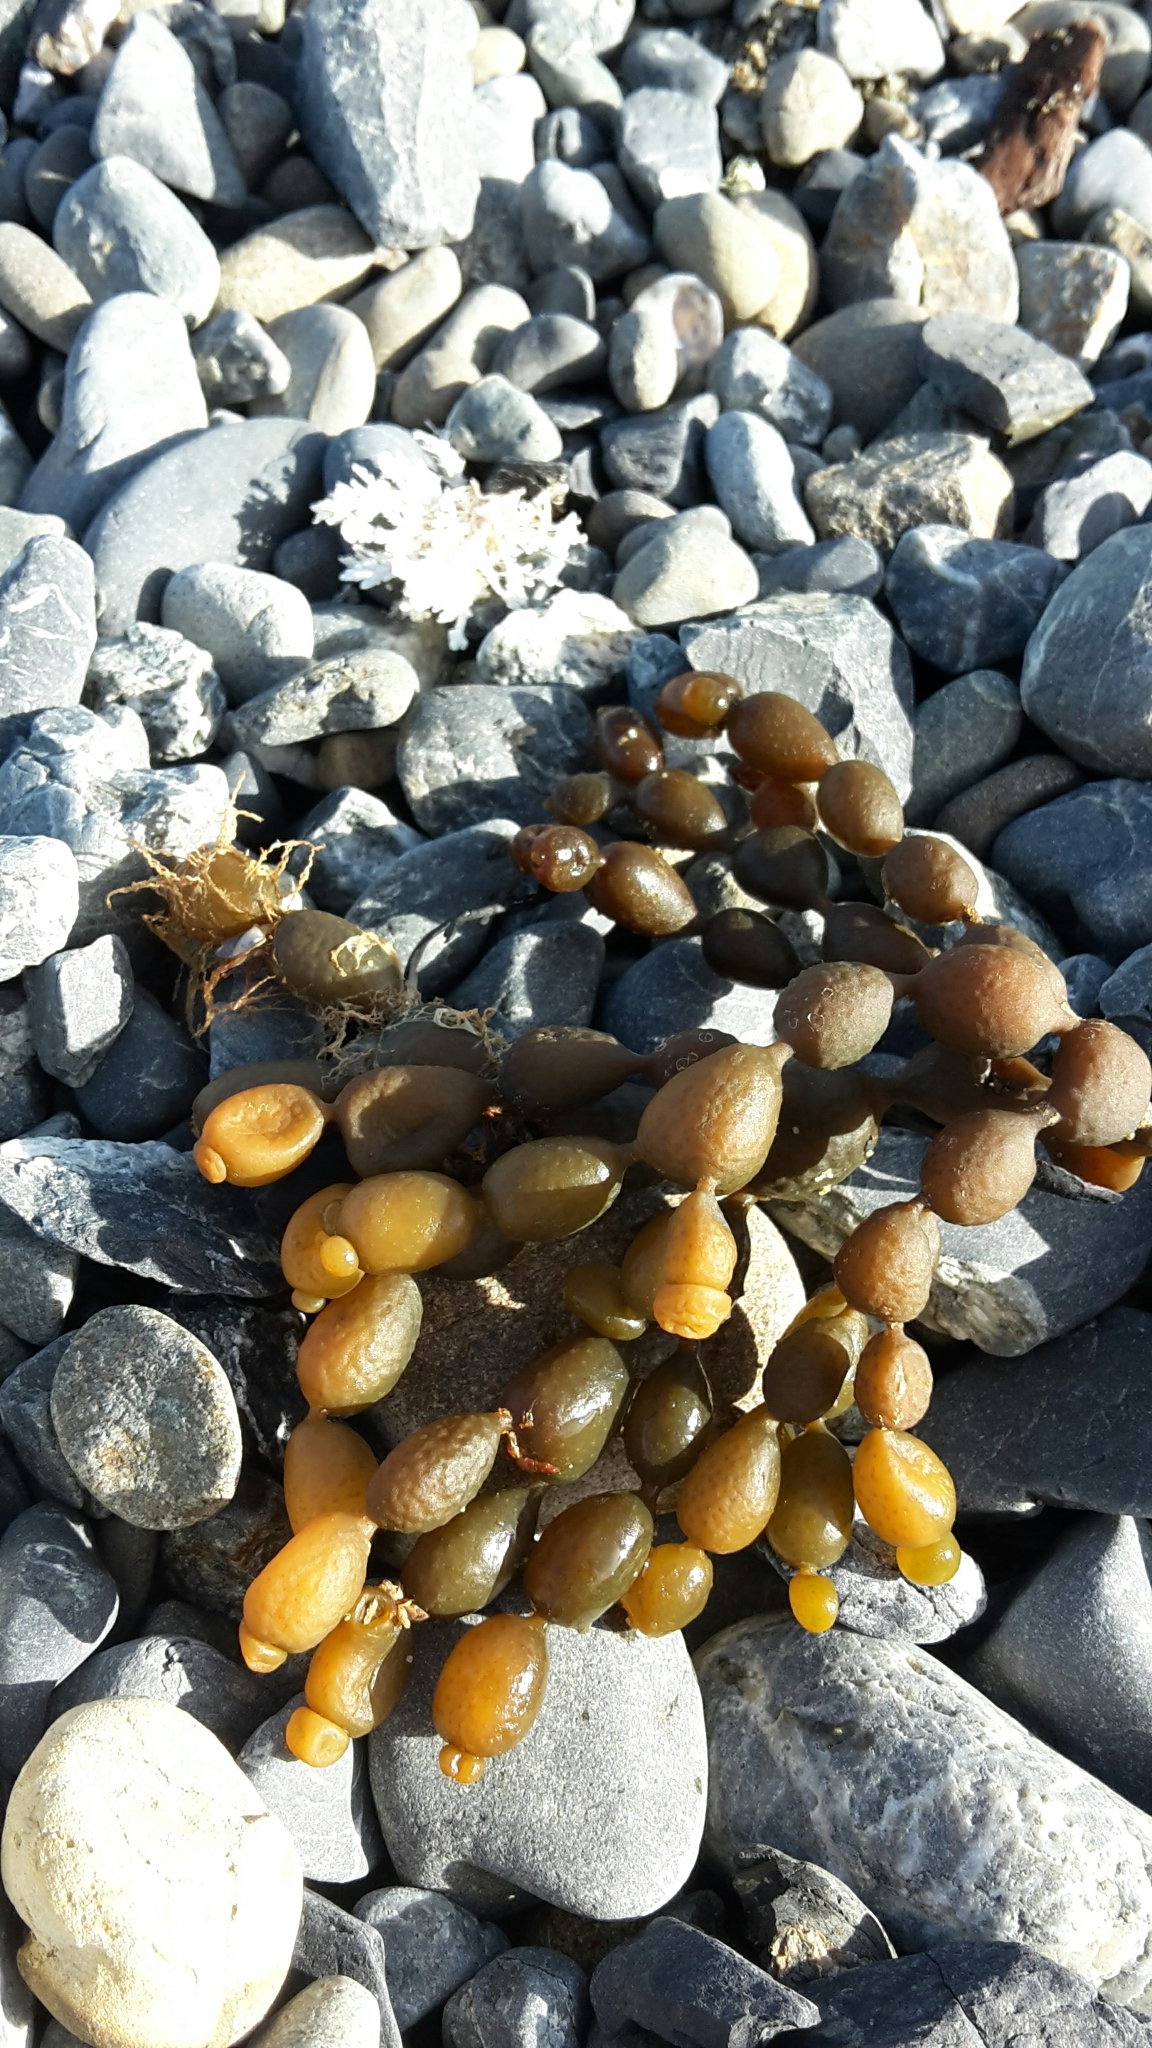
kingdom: Chromista
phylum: Ochrophyta
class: Phaeophyceae
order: Fucales
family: Hormosiraceae
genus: Hormosira
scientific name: Hormosira banksii
